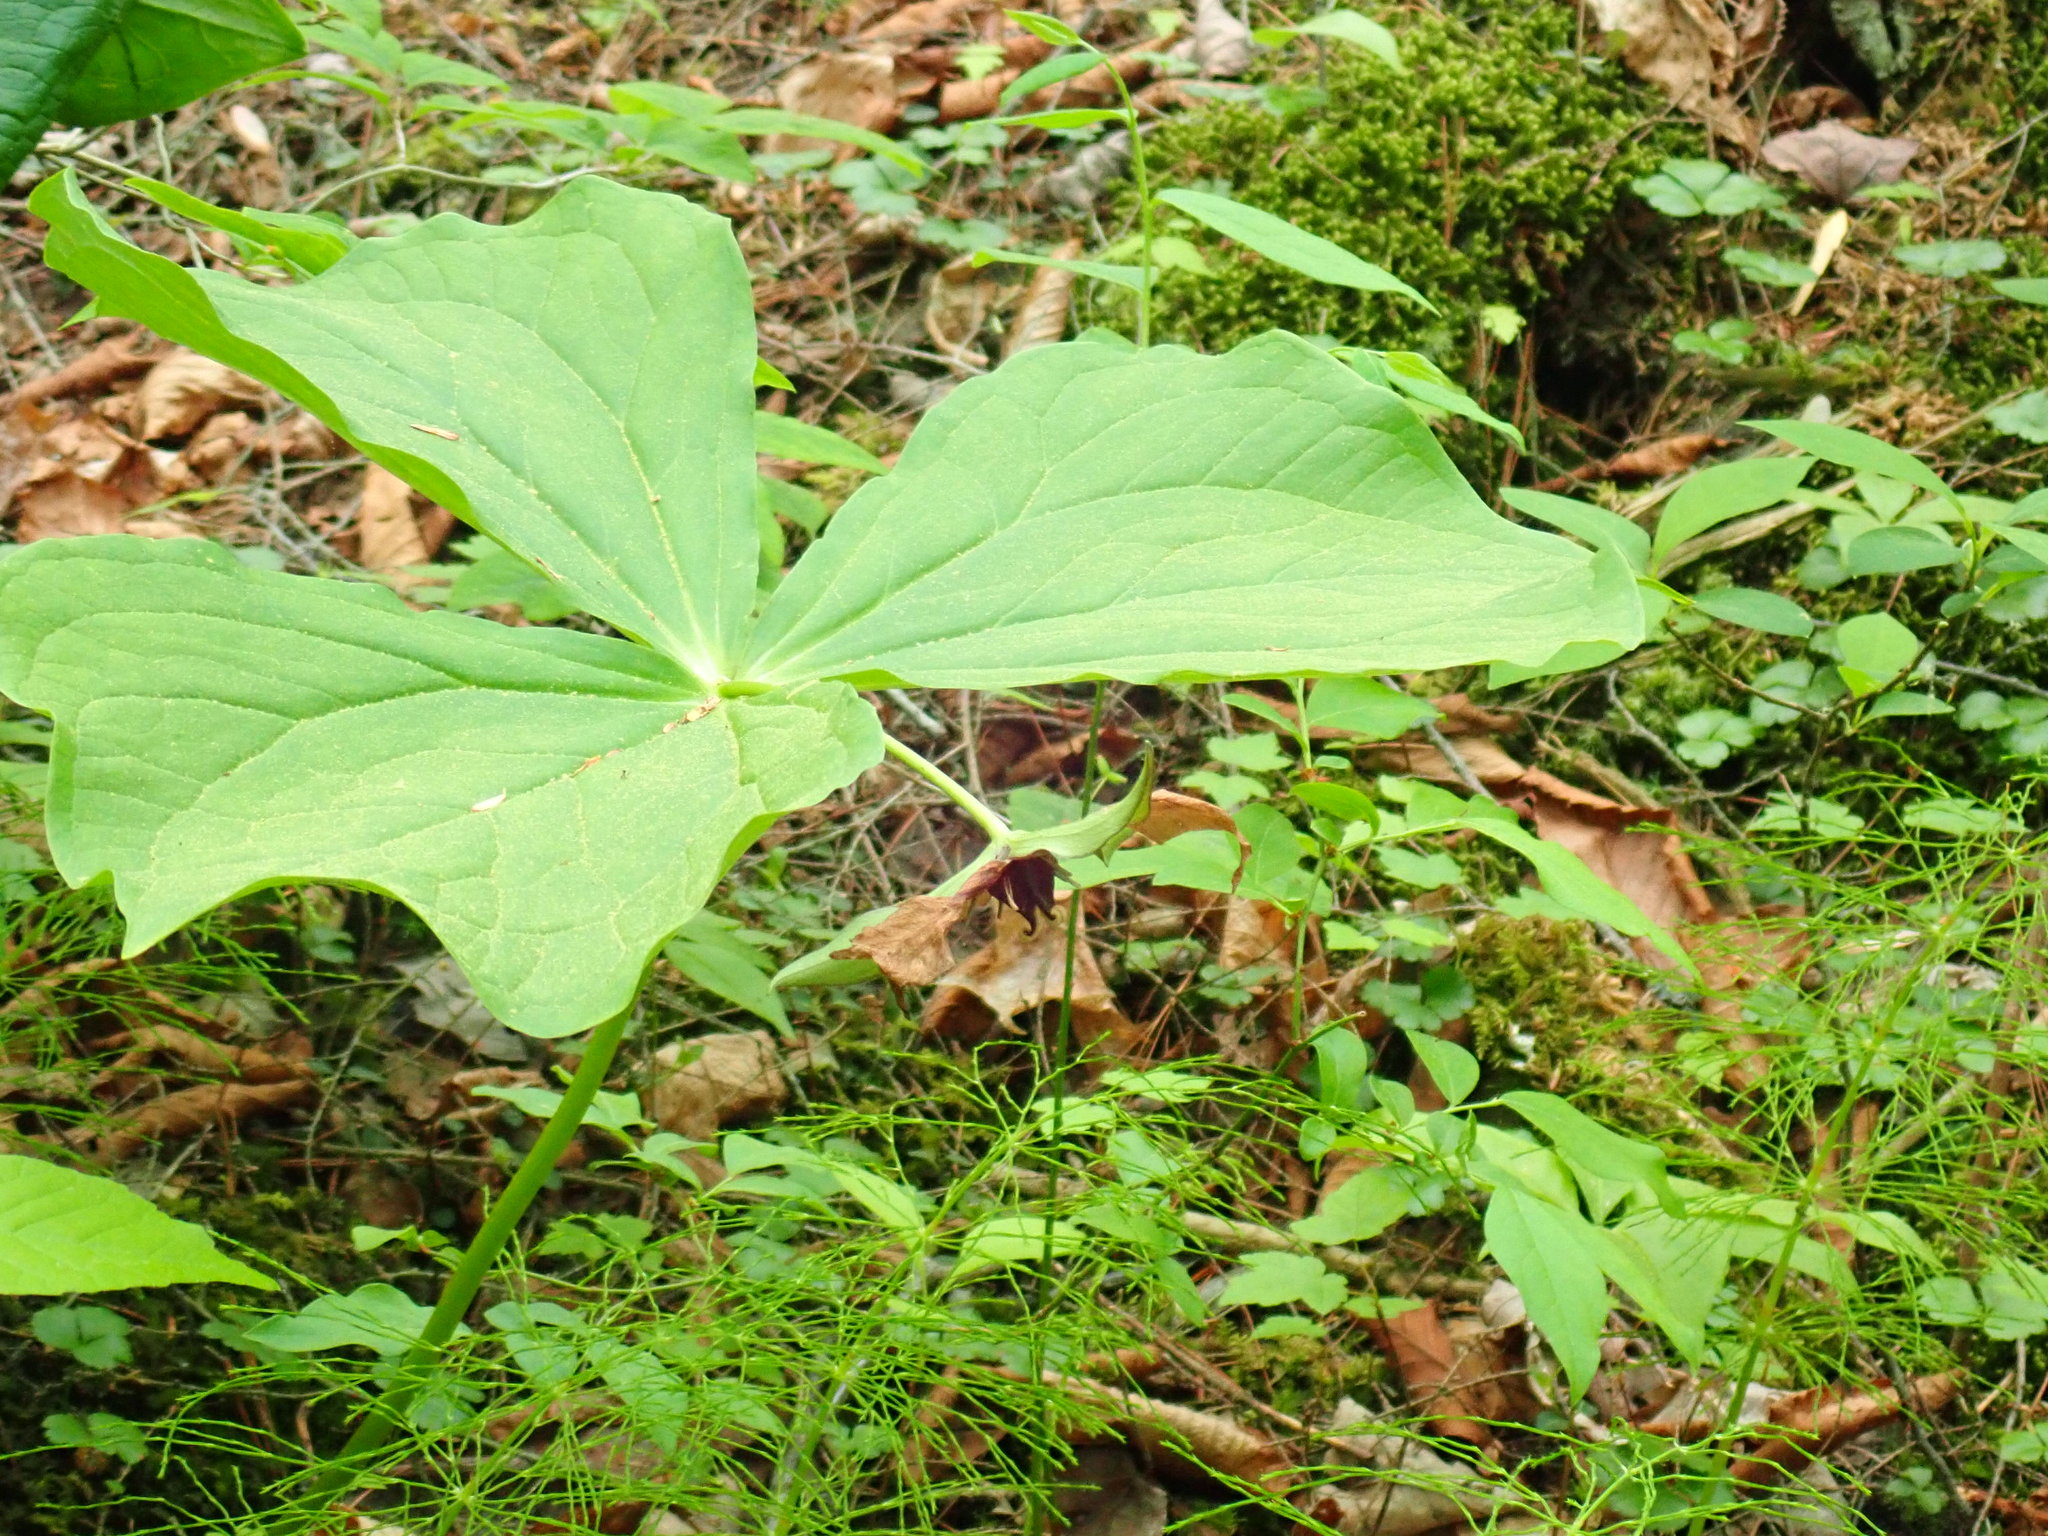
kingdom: Plantae
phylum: Tracheophyta
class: Liliopsida
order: Liliales
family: Melanthiaceae
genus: Trillium
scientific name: Trillium erectum
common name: Purple trillium
